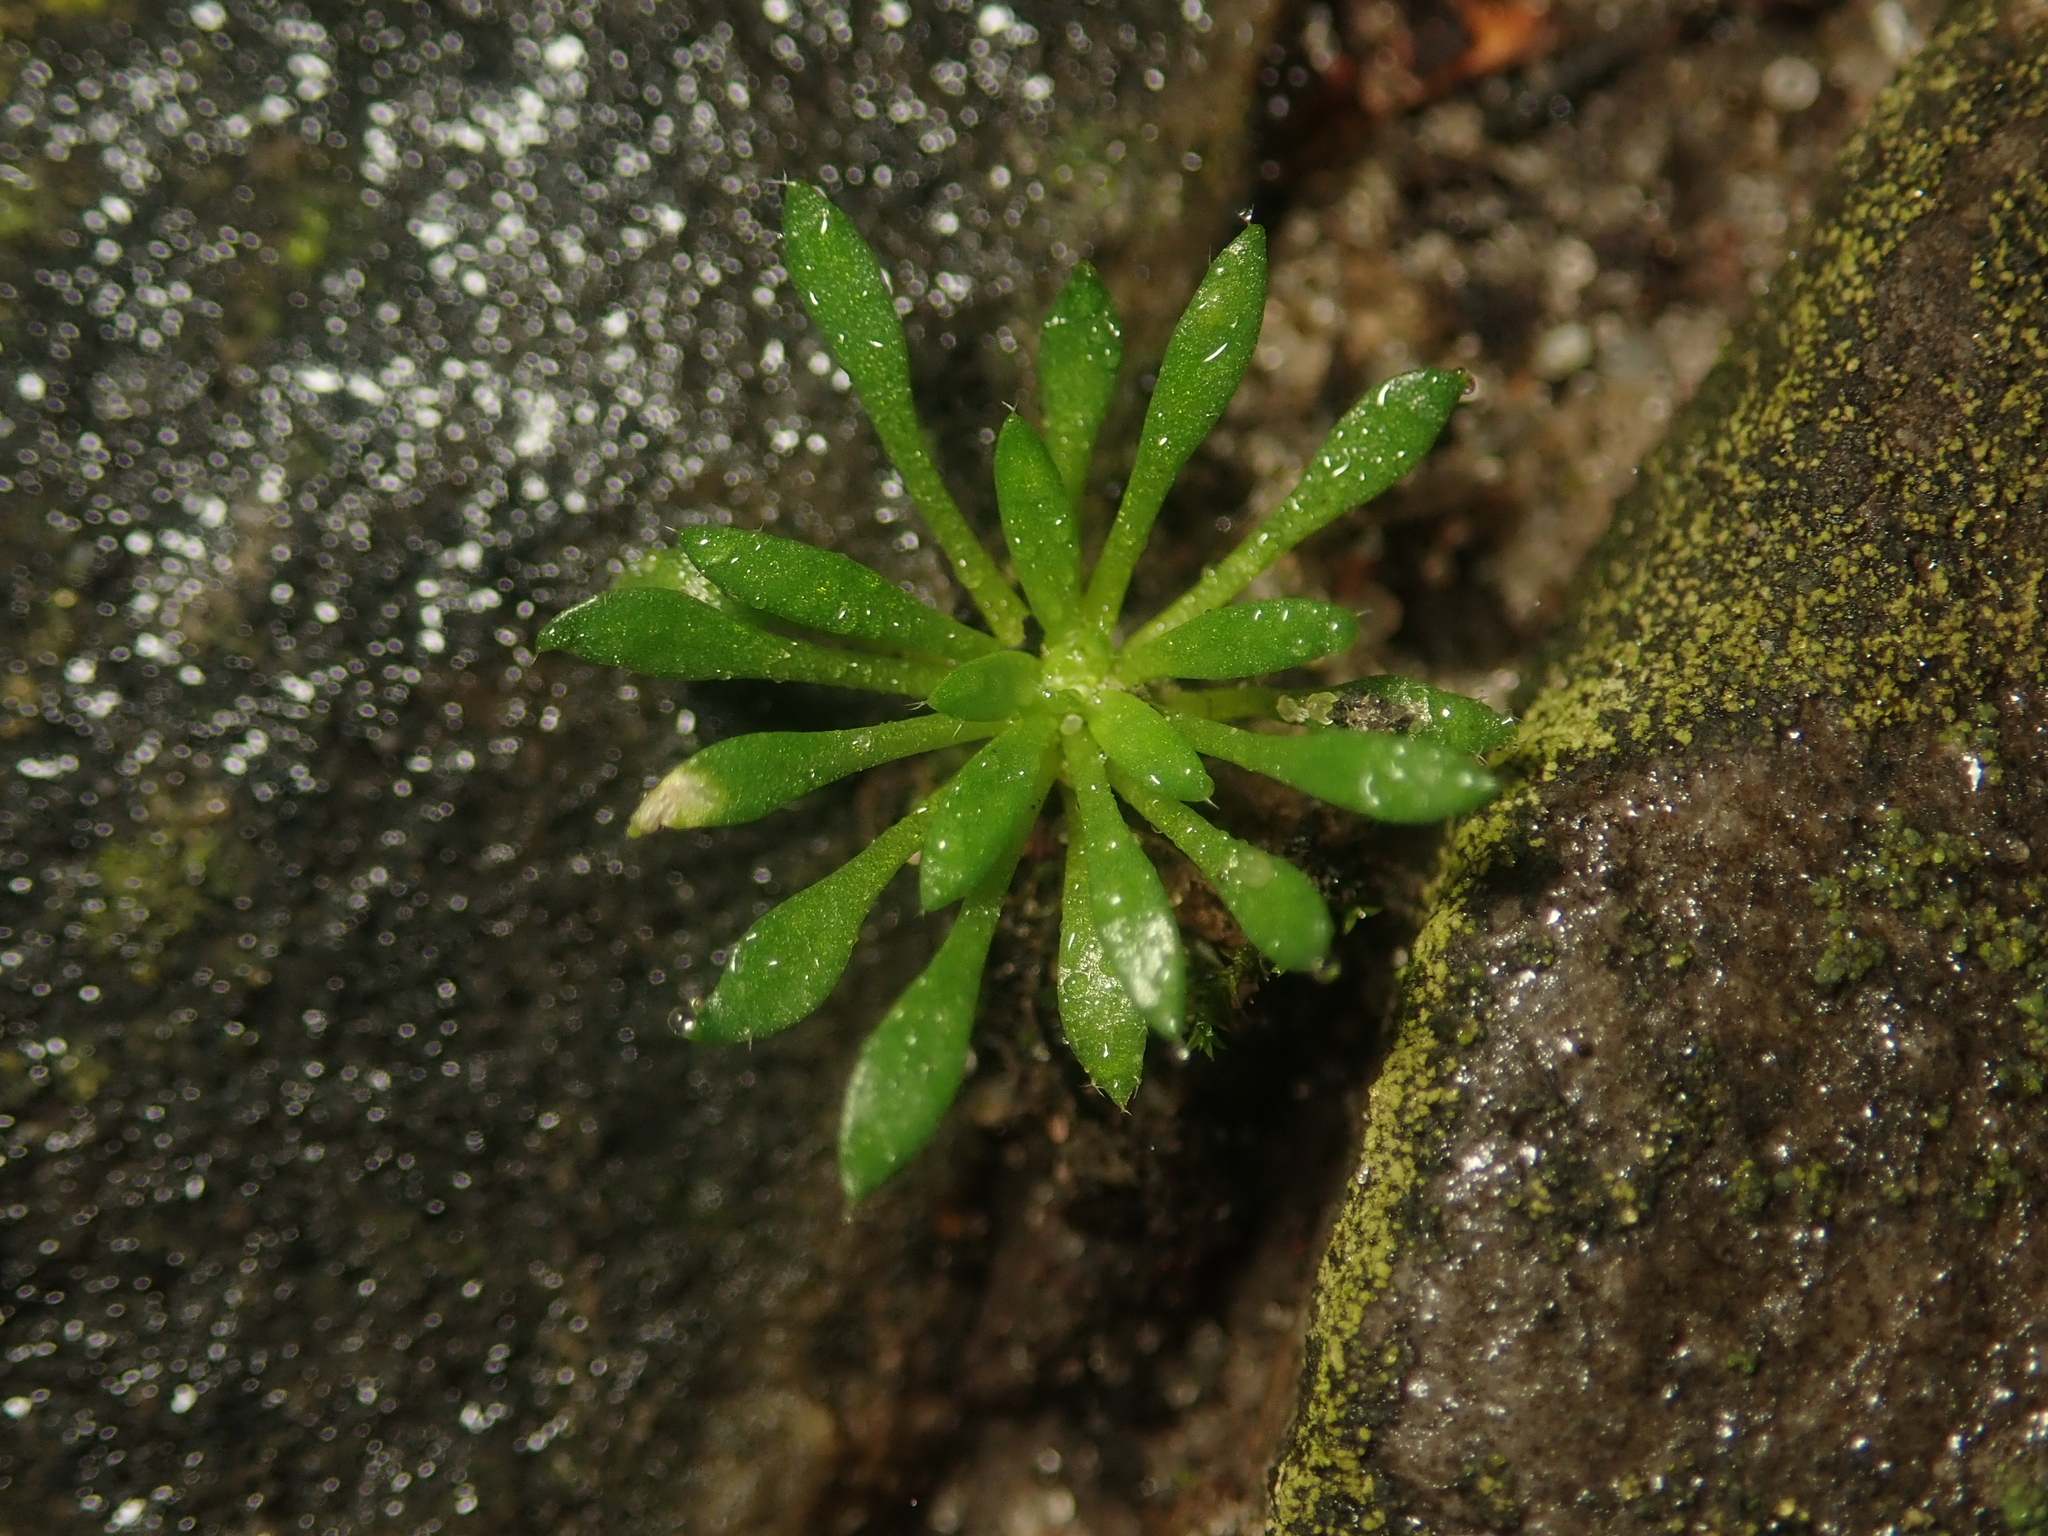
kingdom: Plantae
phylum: Tracheophyta
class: Magnoliopsida
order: Brassicales
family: Brassicaceae
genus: Draba
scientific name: Draba verna
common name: Spring draba
